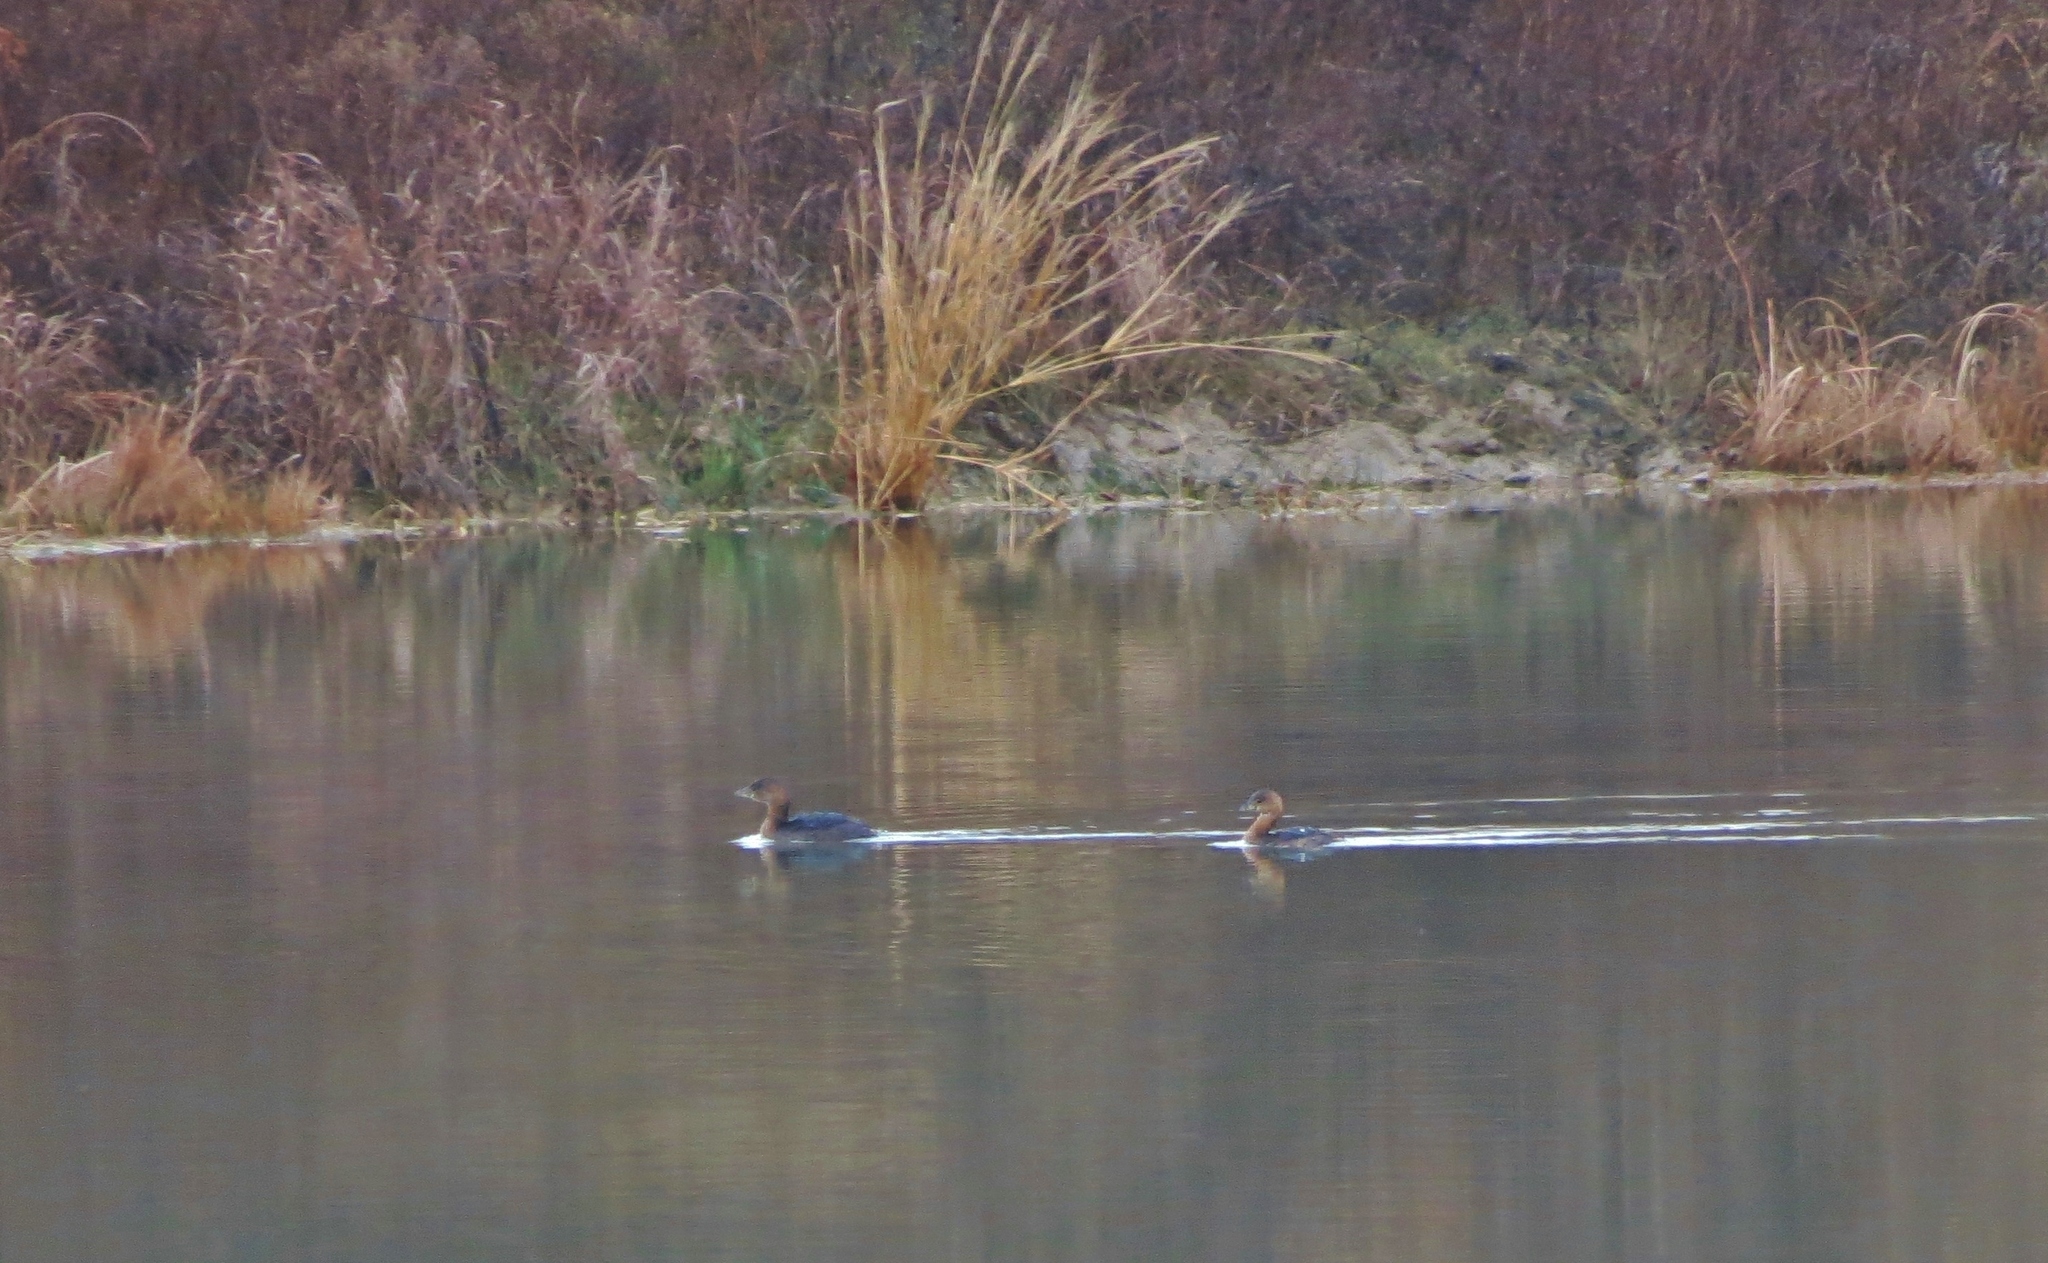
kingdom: Animalia
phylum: Chordata
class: Aves
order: Podicipediformes
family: Podicipedidae
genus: Podilymbus
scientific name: Podilymbus podiceps
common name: Pied-billed grebe
